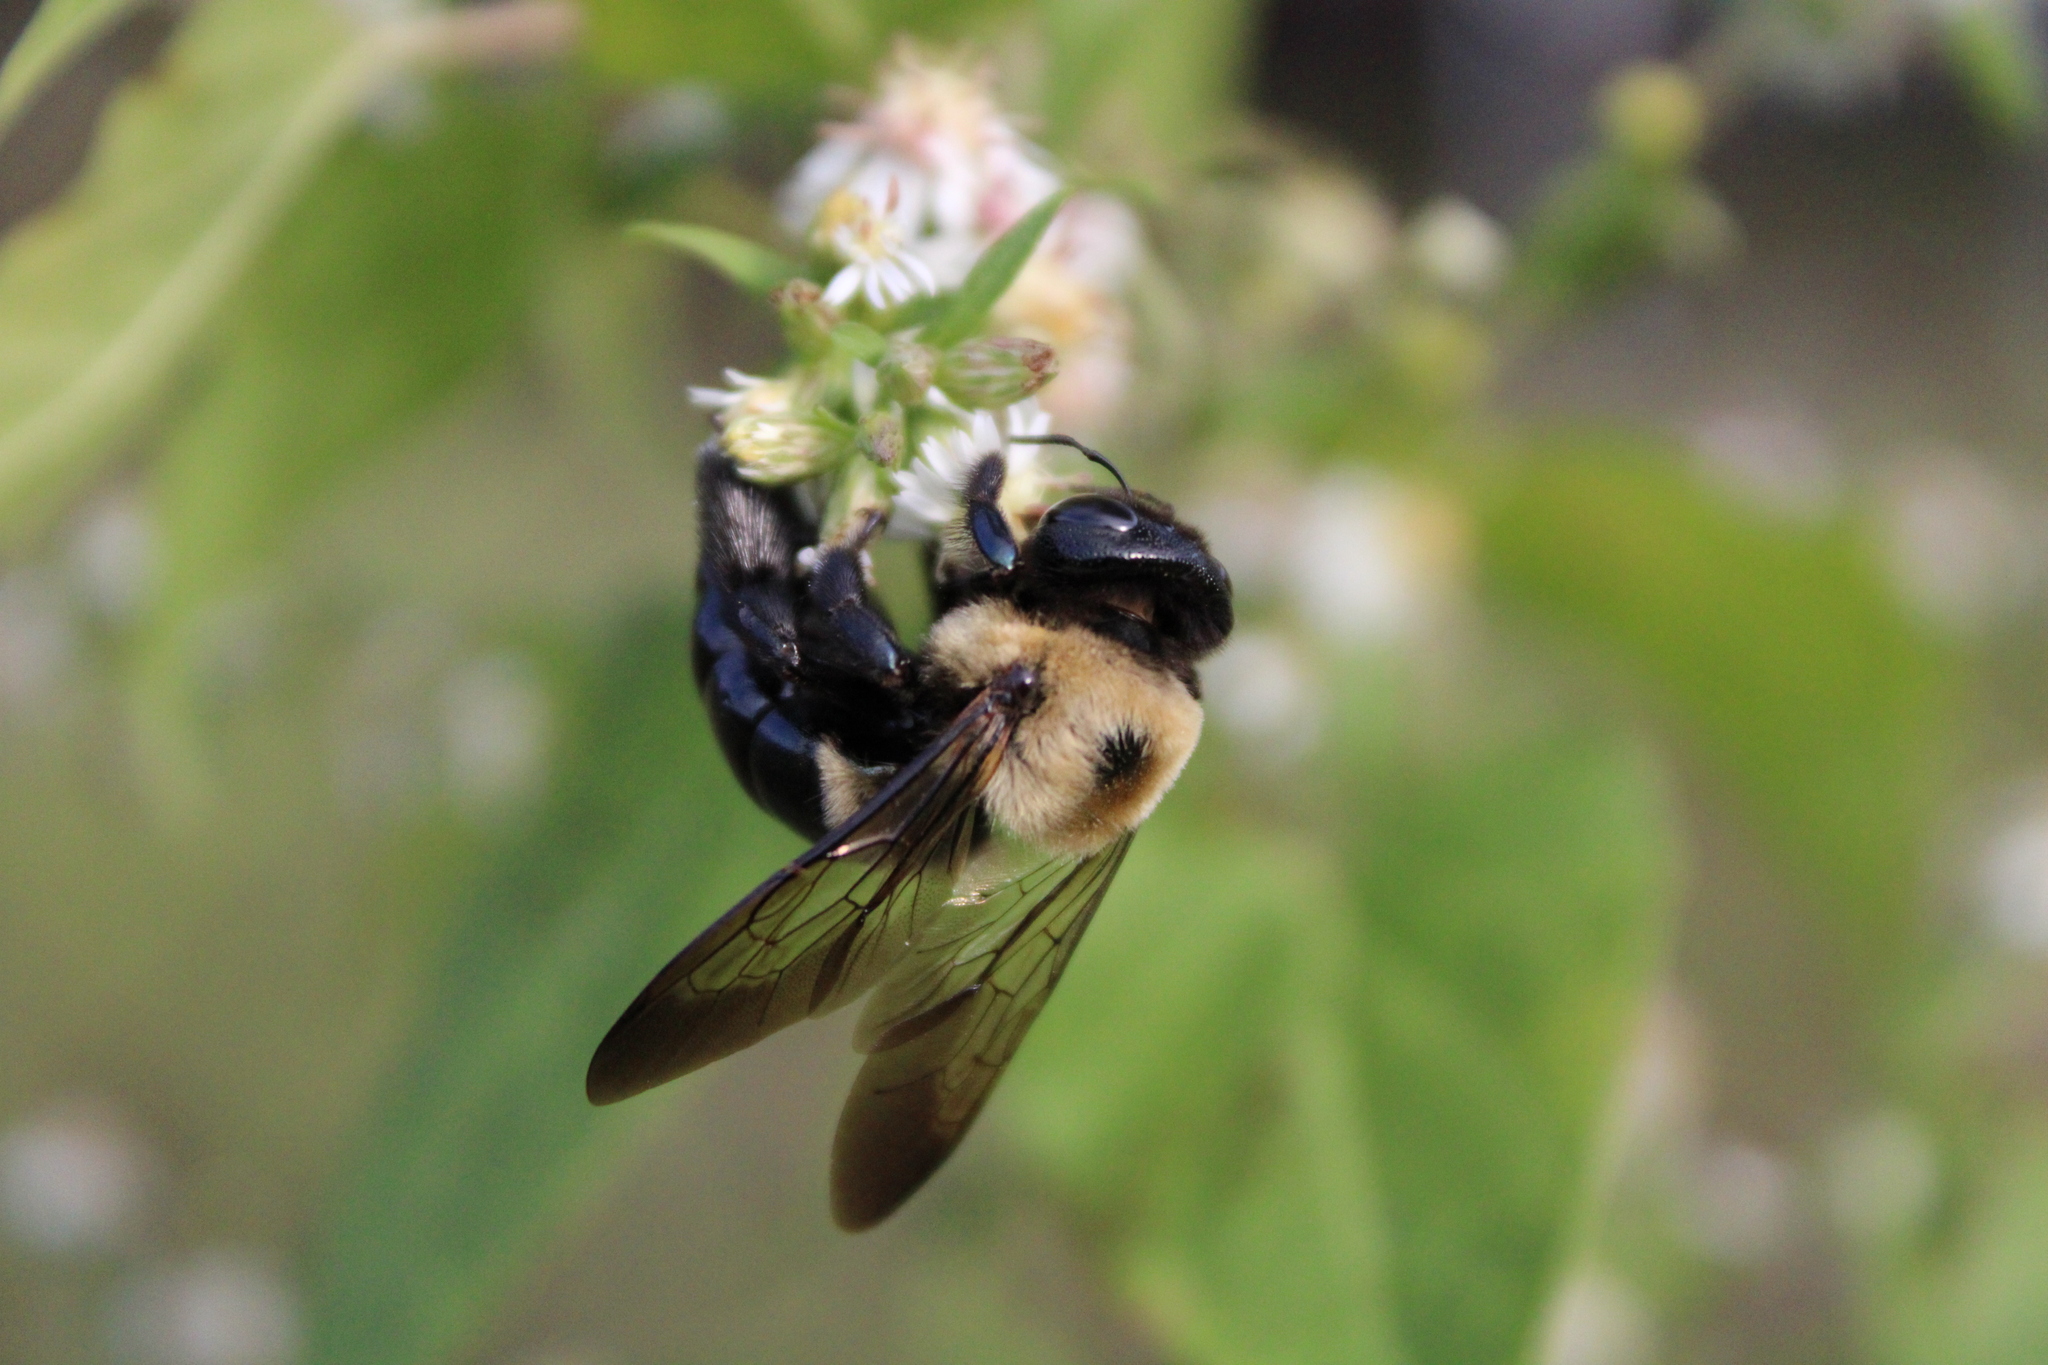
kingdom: Animalia
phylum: Arthropoda
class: Insecta
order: Hymenoptera
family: Apidae
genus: Xylocopa
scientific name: Xylocopa virginica
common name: Carpenter bee
